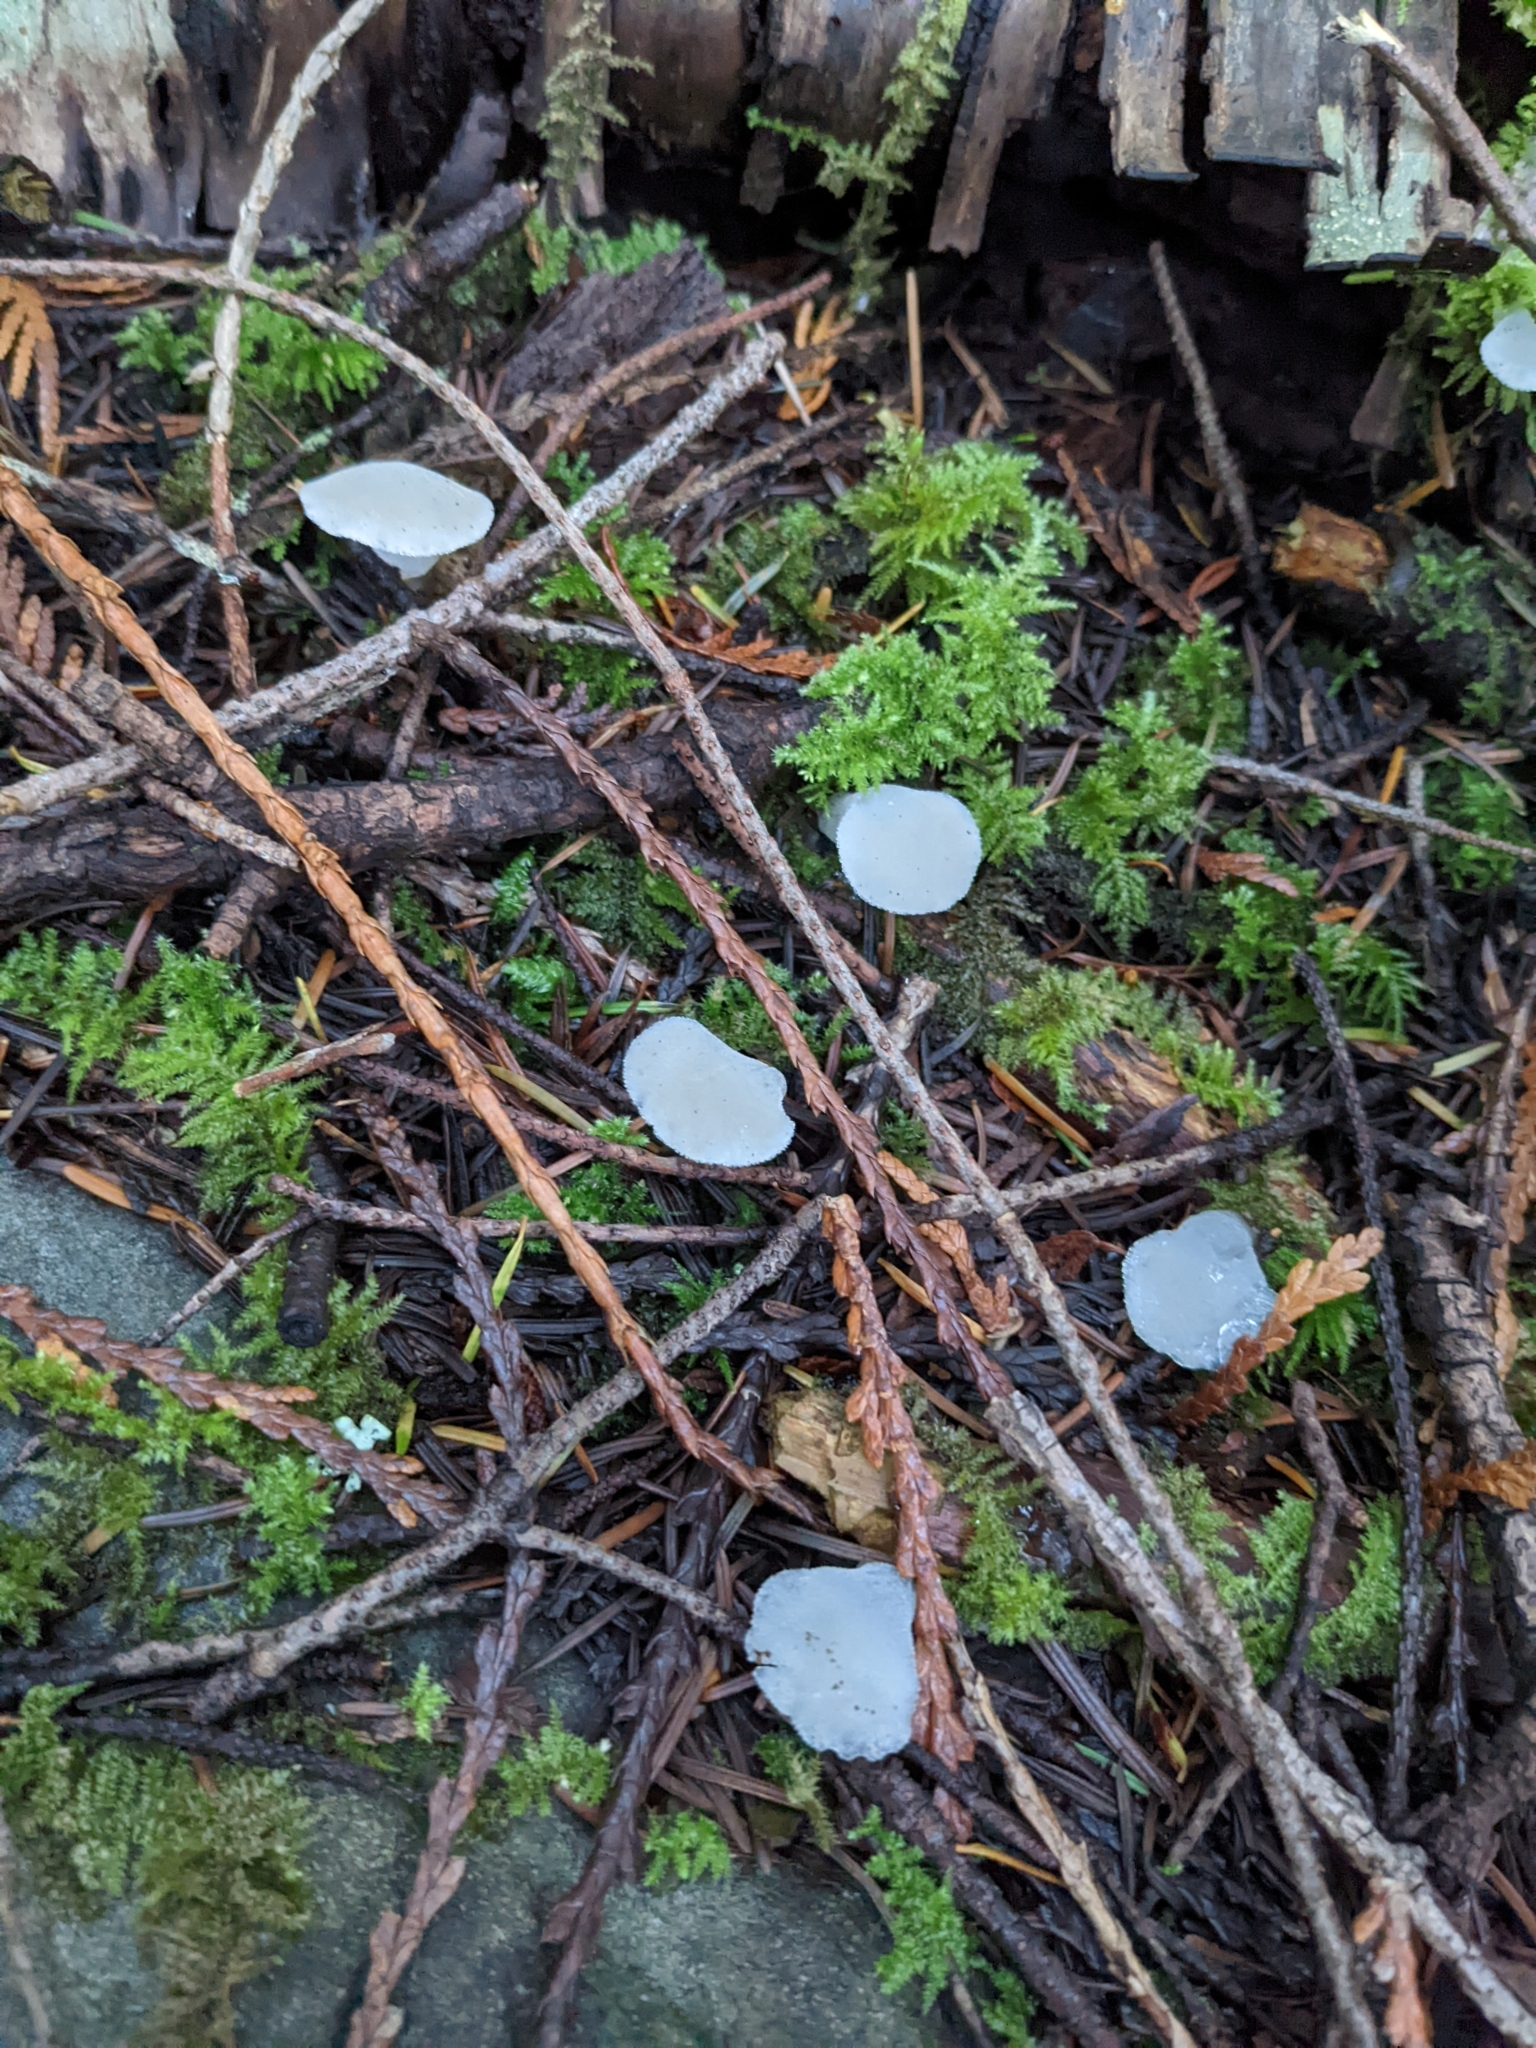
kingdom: Fungi
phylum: Basidiomycota
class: Agaricomycetes
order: Auriculariales
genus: Pseudohydnum
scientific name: Pseudohydnum gelatinosum
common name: Jelly tongue
